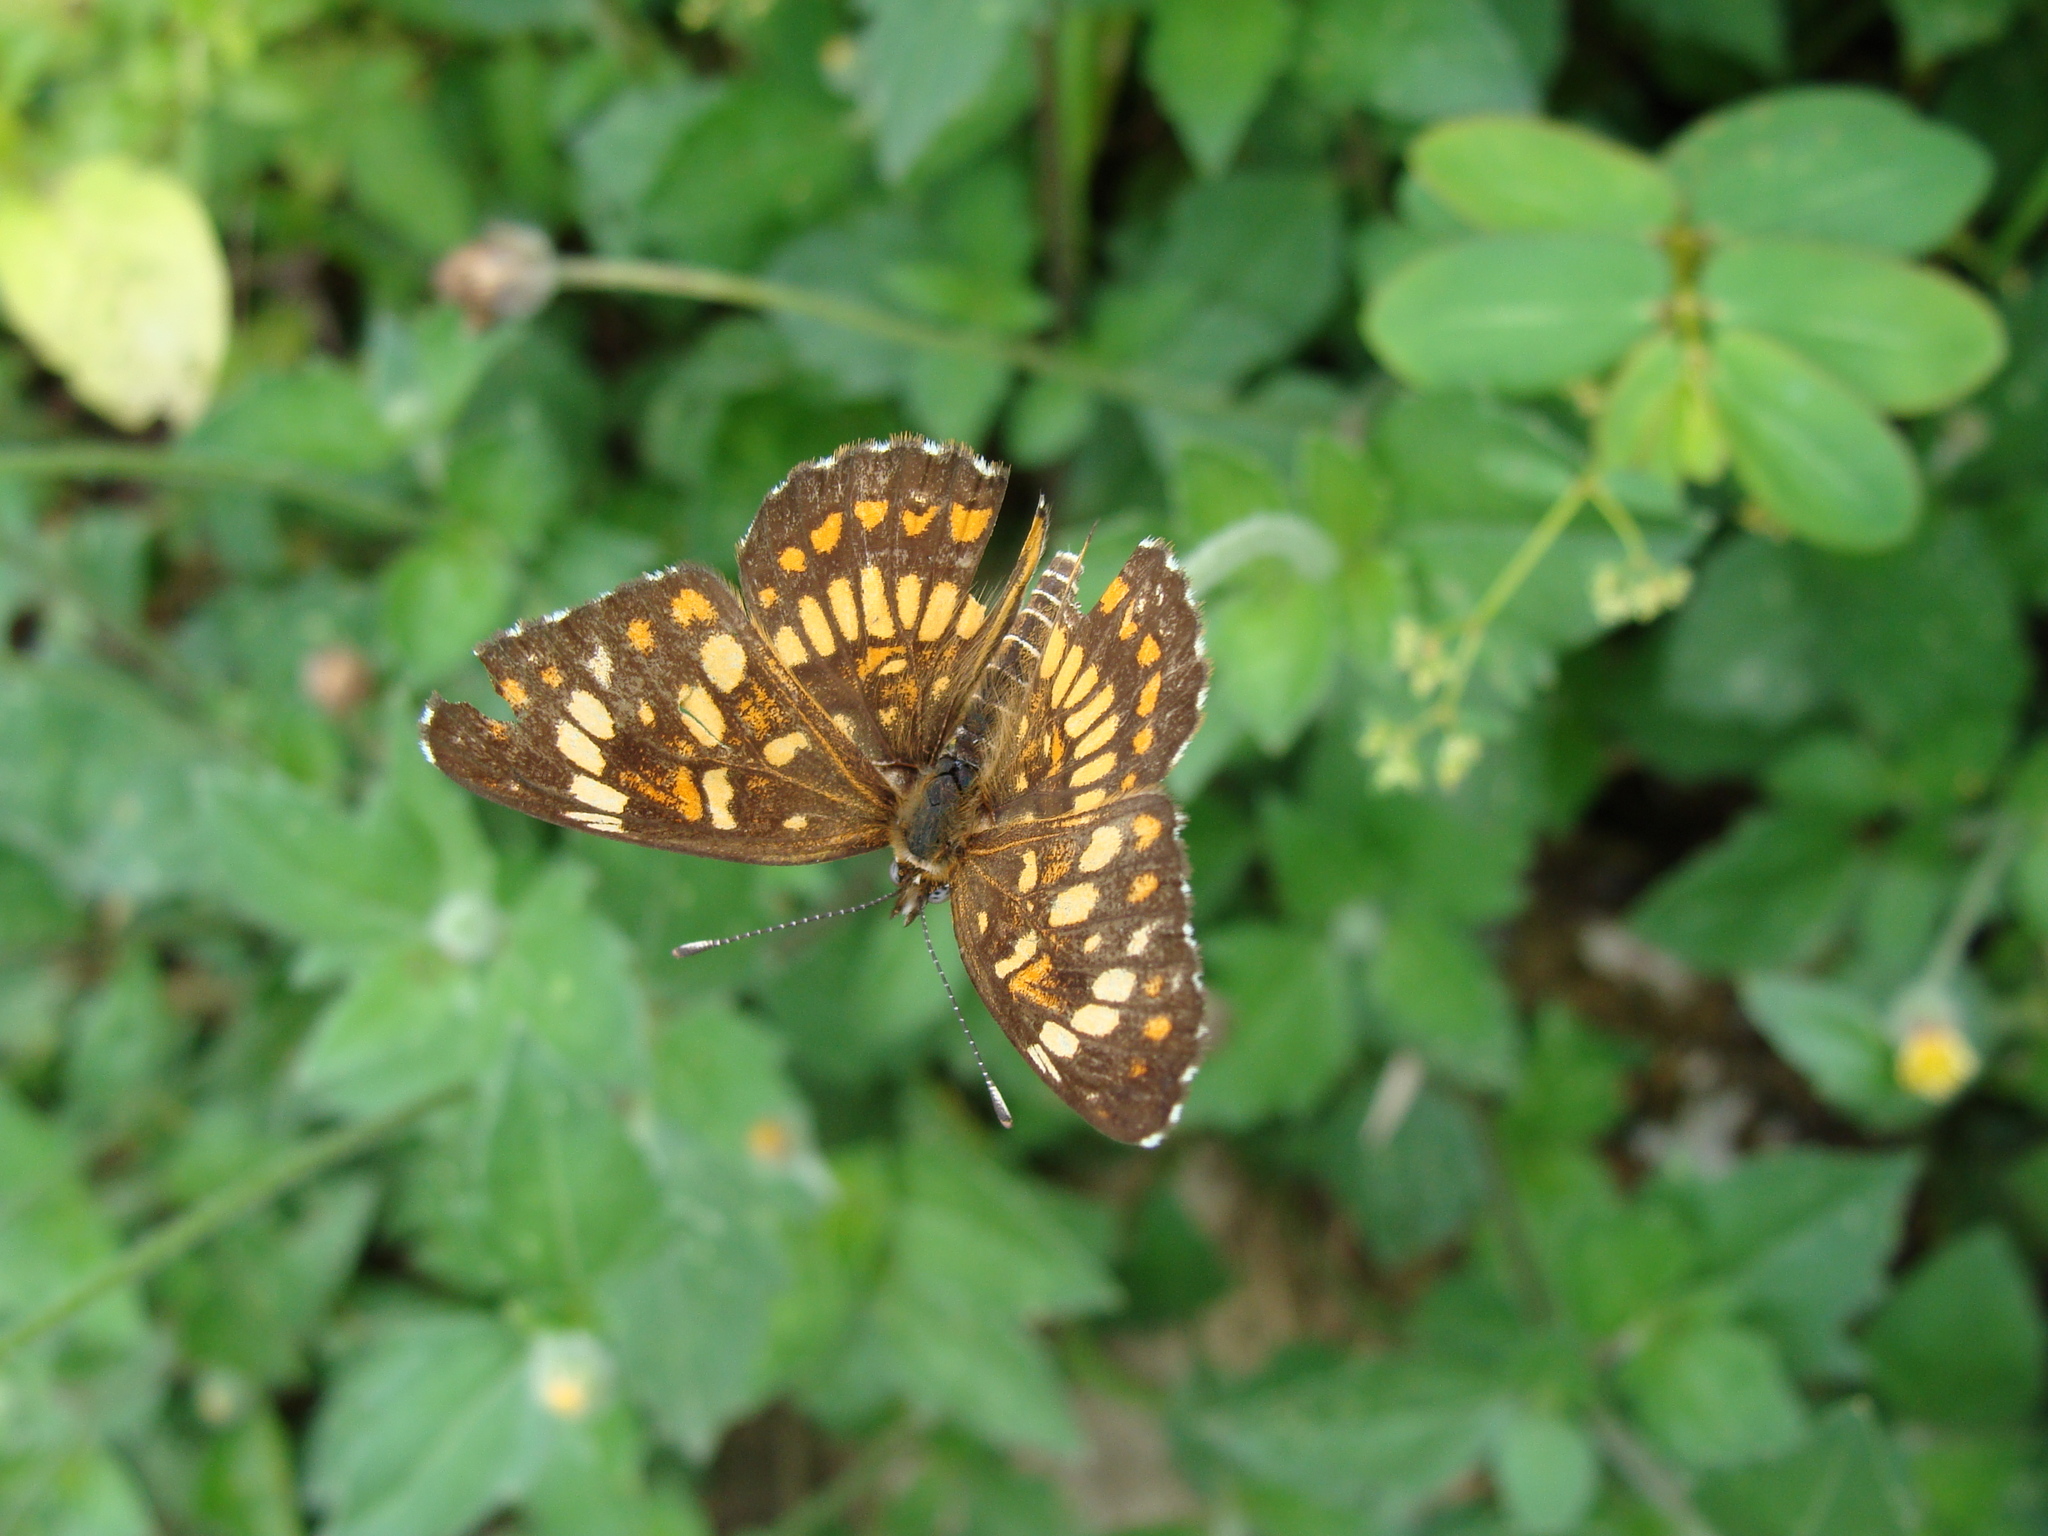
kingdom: Animalia
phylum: Arthropoda
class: Insecta
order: Lepidoptera
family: Nymphalidae
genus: Thessalia
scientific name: Thessalia theona
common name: Nymphalid moth
